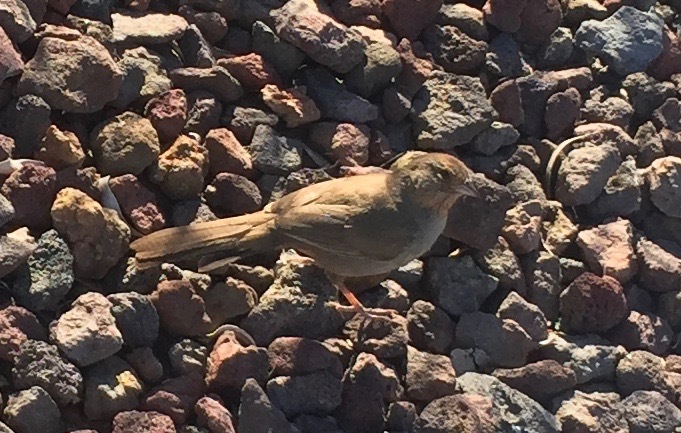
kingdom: Animalia
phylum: Chordata
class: Aves
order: Passeriformes
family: Passerellidae
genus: Melozone
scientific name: Melozone crissalis
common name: California towhee
